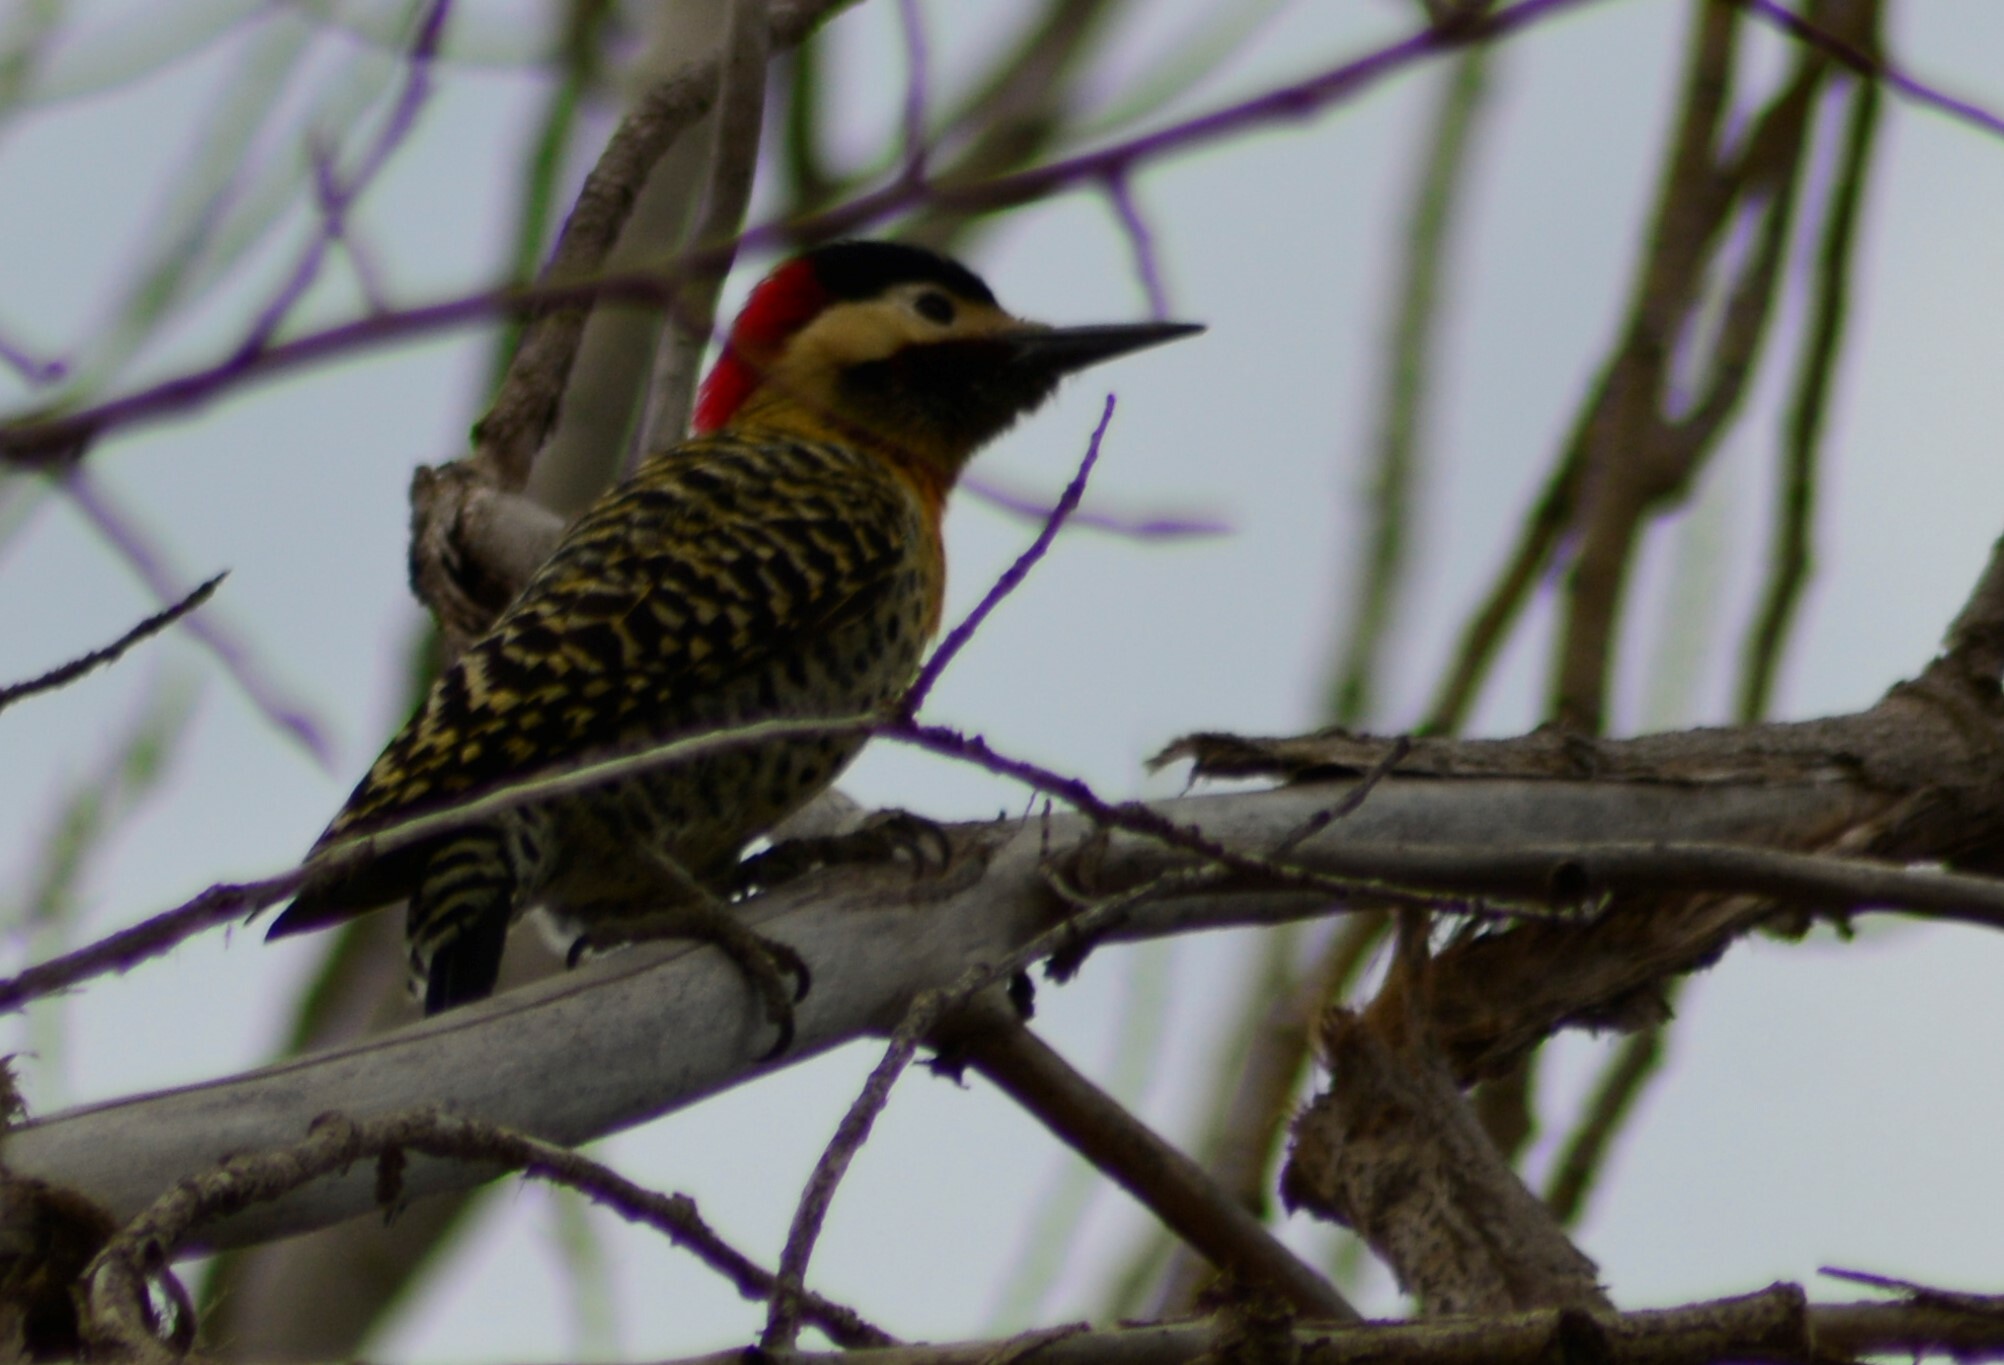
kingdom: Animalia
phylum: Chordata
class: Aves
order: Piciformes
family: Picidae
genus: Colaptes
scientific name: Colaptes melanochloros
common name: Green-barred woodpecker
